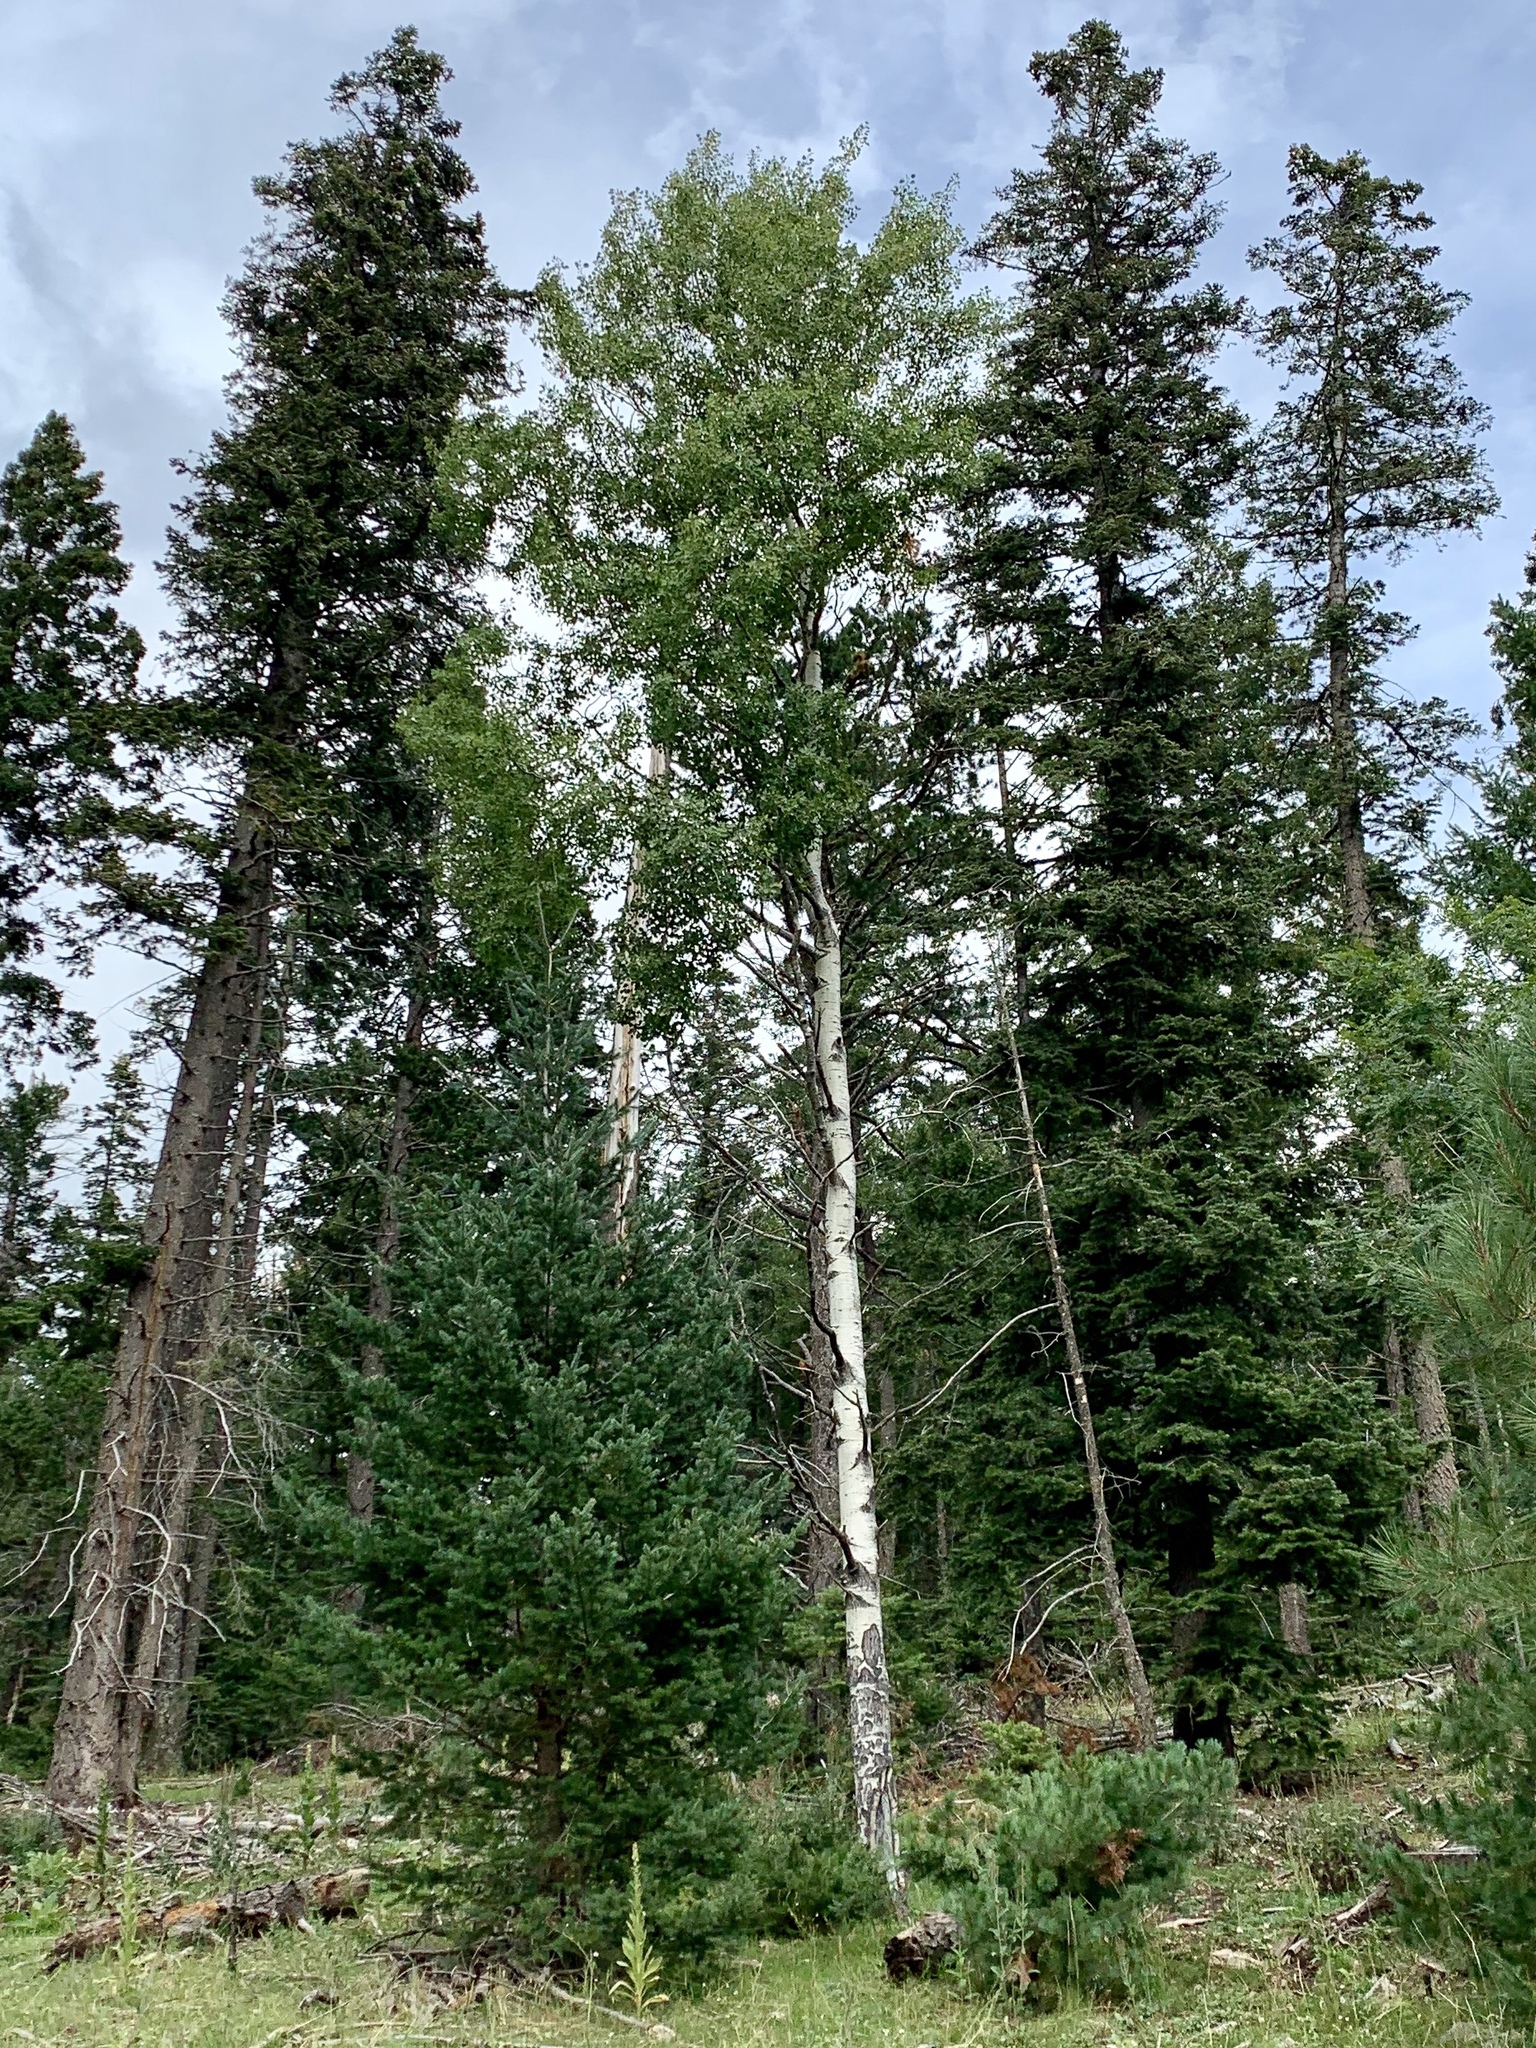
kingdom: Plantae
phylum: Tracheophyta
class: Magnoliopsida
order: Malpighiales
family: Salicaceae
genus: Populus
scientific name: Populus tremuloides
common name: Quaking aspen
